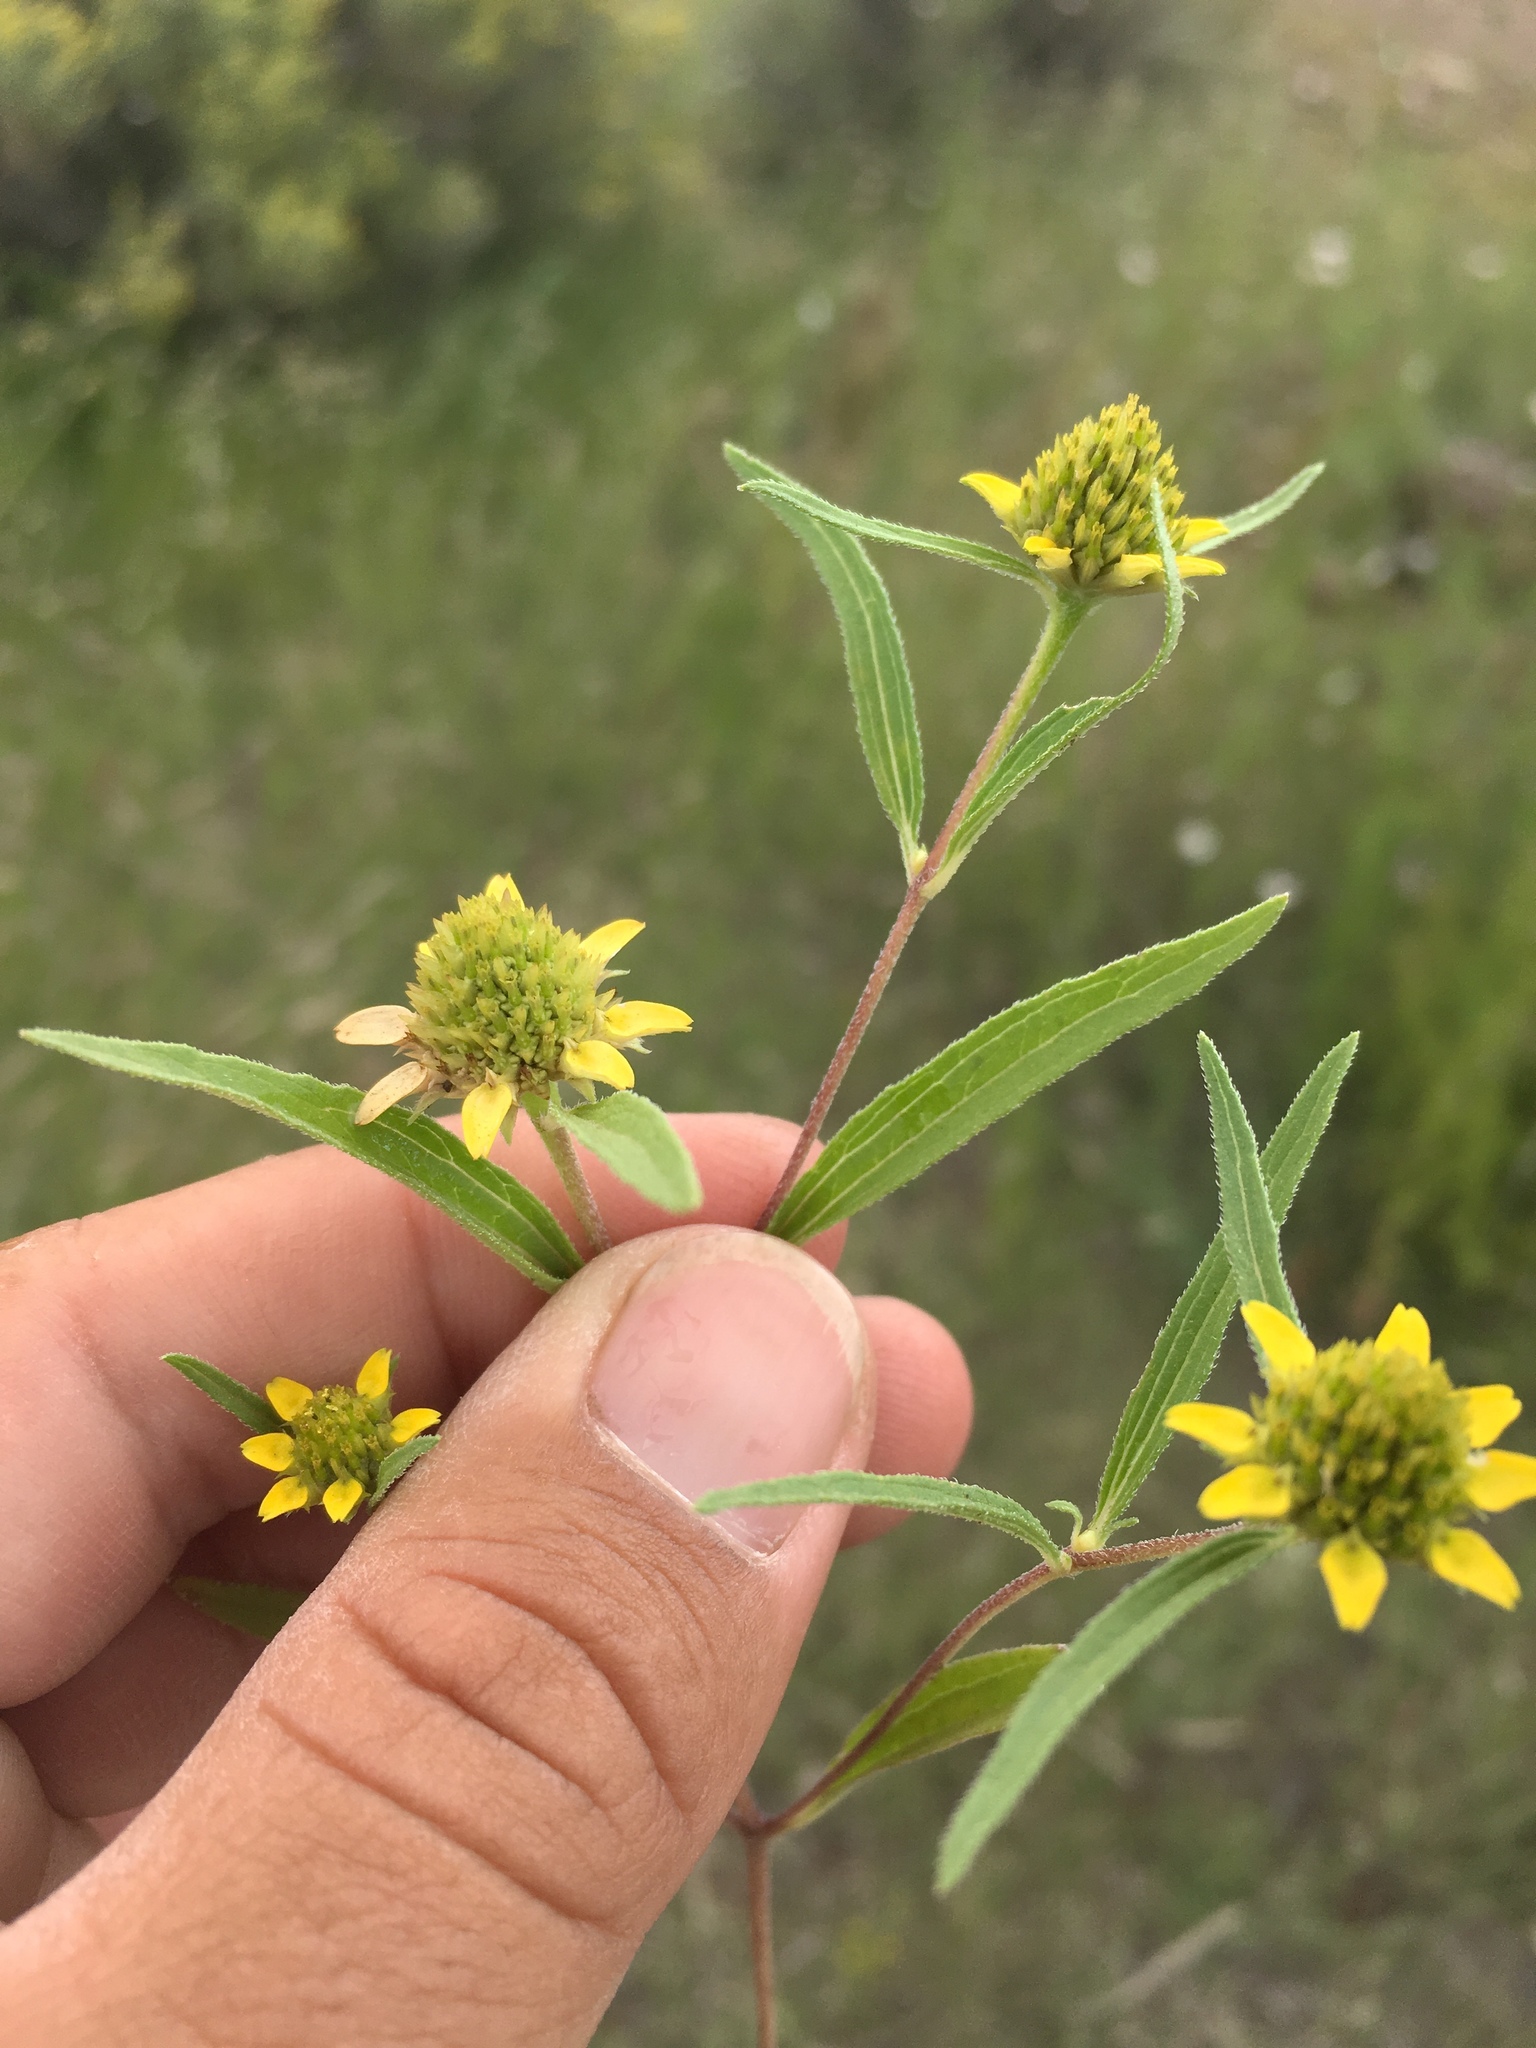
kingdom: Plantae
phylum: Tracheophyta
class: Magnoliopsida
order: Asterales
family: Asteraceae
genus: Sanvitalia
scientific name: Sanvitalia abertii
